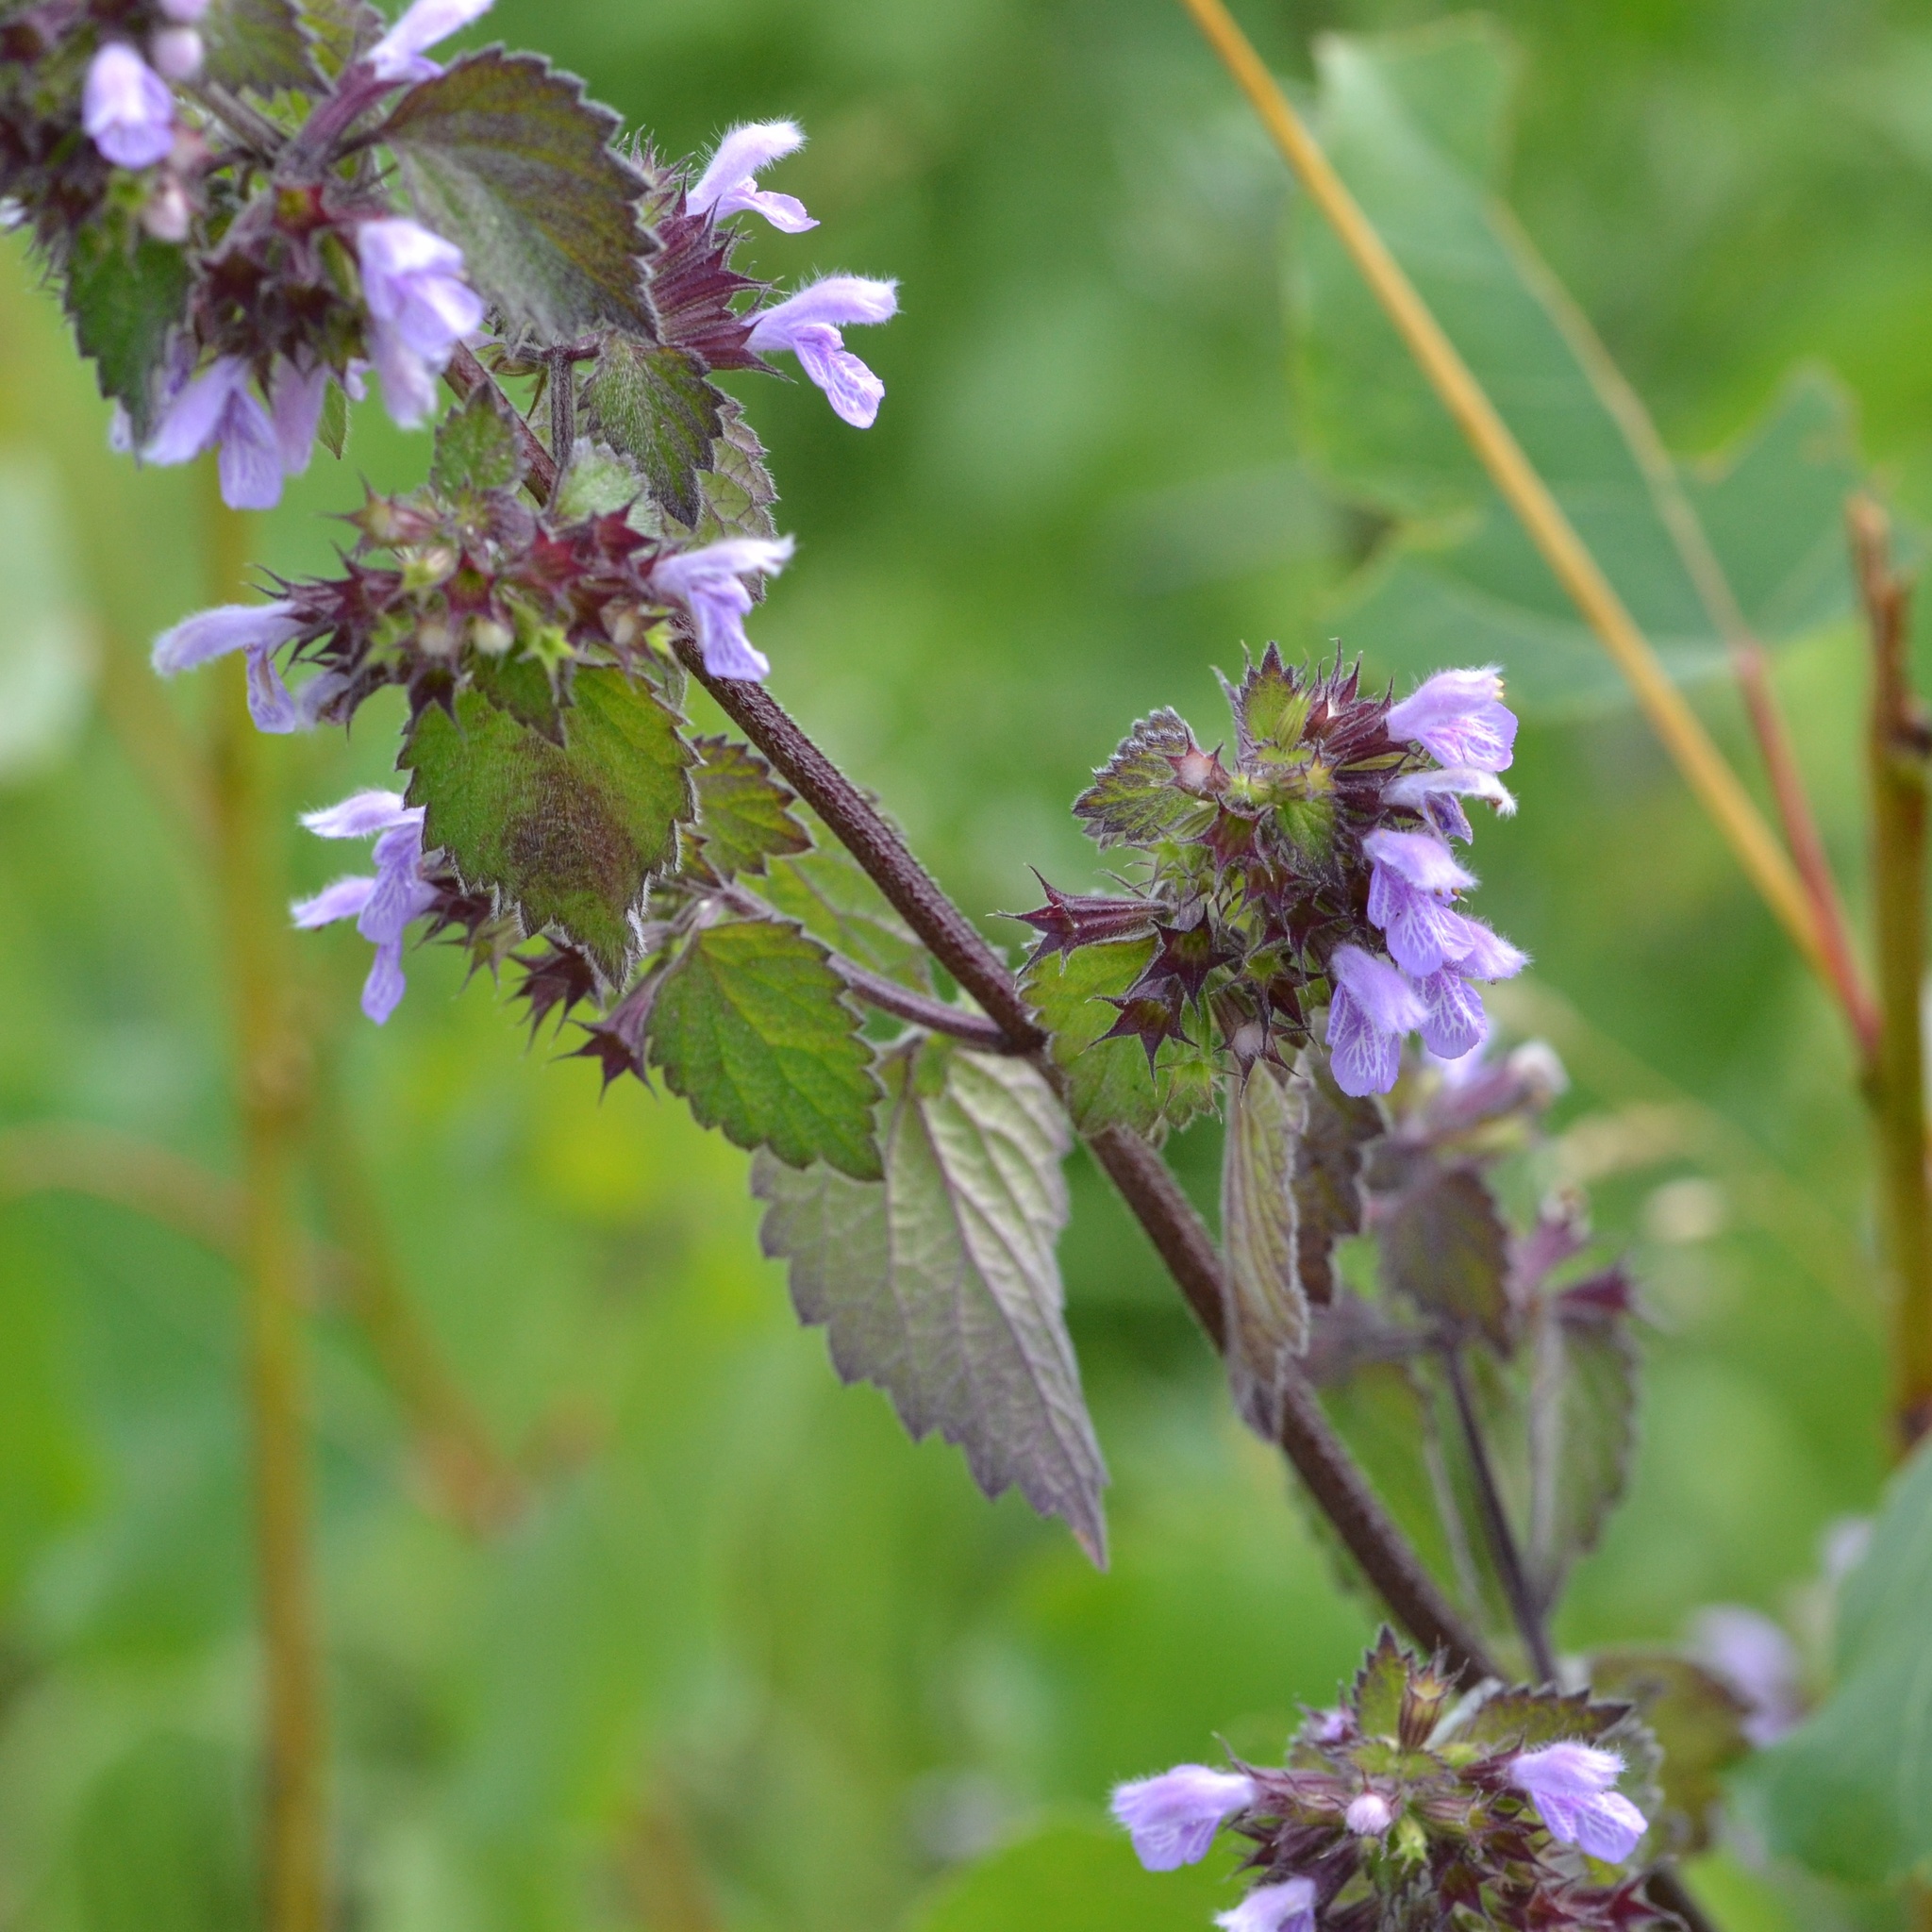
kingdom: Plantae
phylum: Tracheophyta
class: Magnoliopsida
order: Lamiales
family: Lamiaceae
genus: Ballota
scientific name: Ballota nigra
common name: Black horehound
